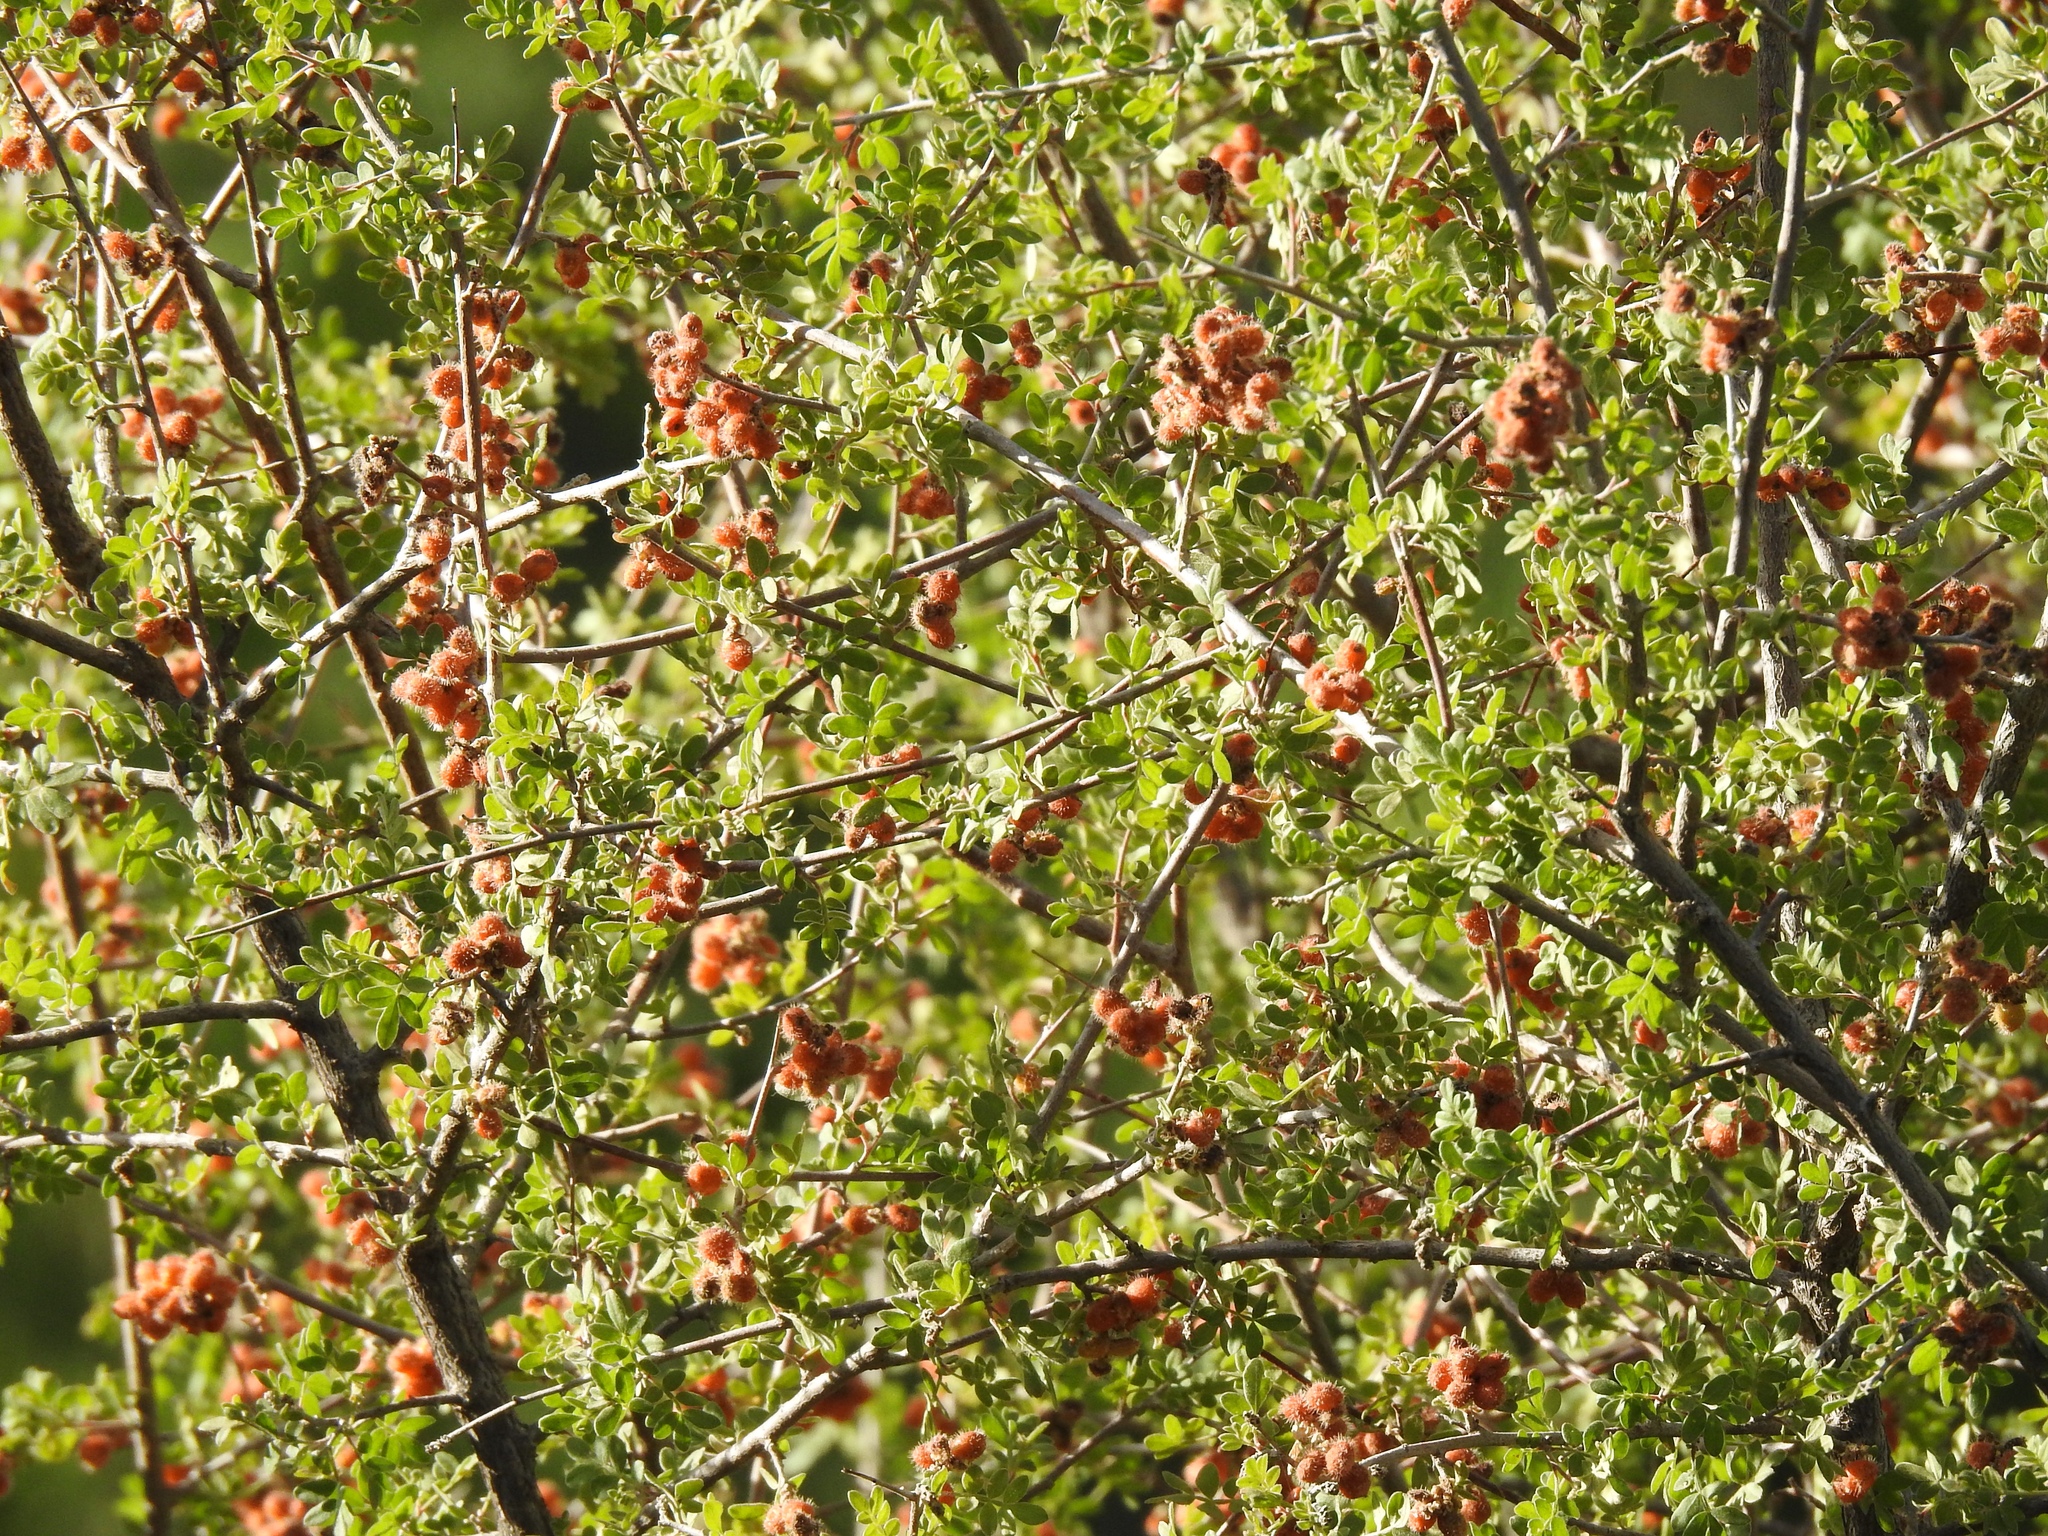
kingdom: Plantae
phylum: Tracheophyta
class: Magnoliopsida
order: Sapindales
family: Anacardiaceae
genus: Rhus
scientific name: Rhus microphylla
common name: Desert sumac
